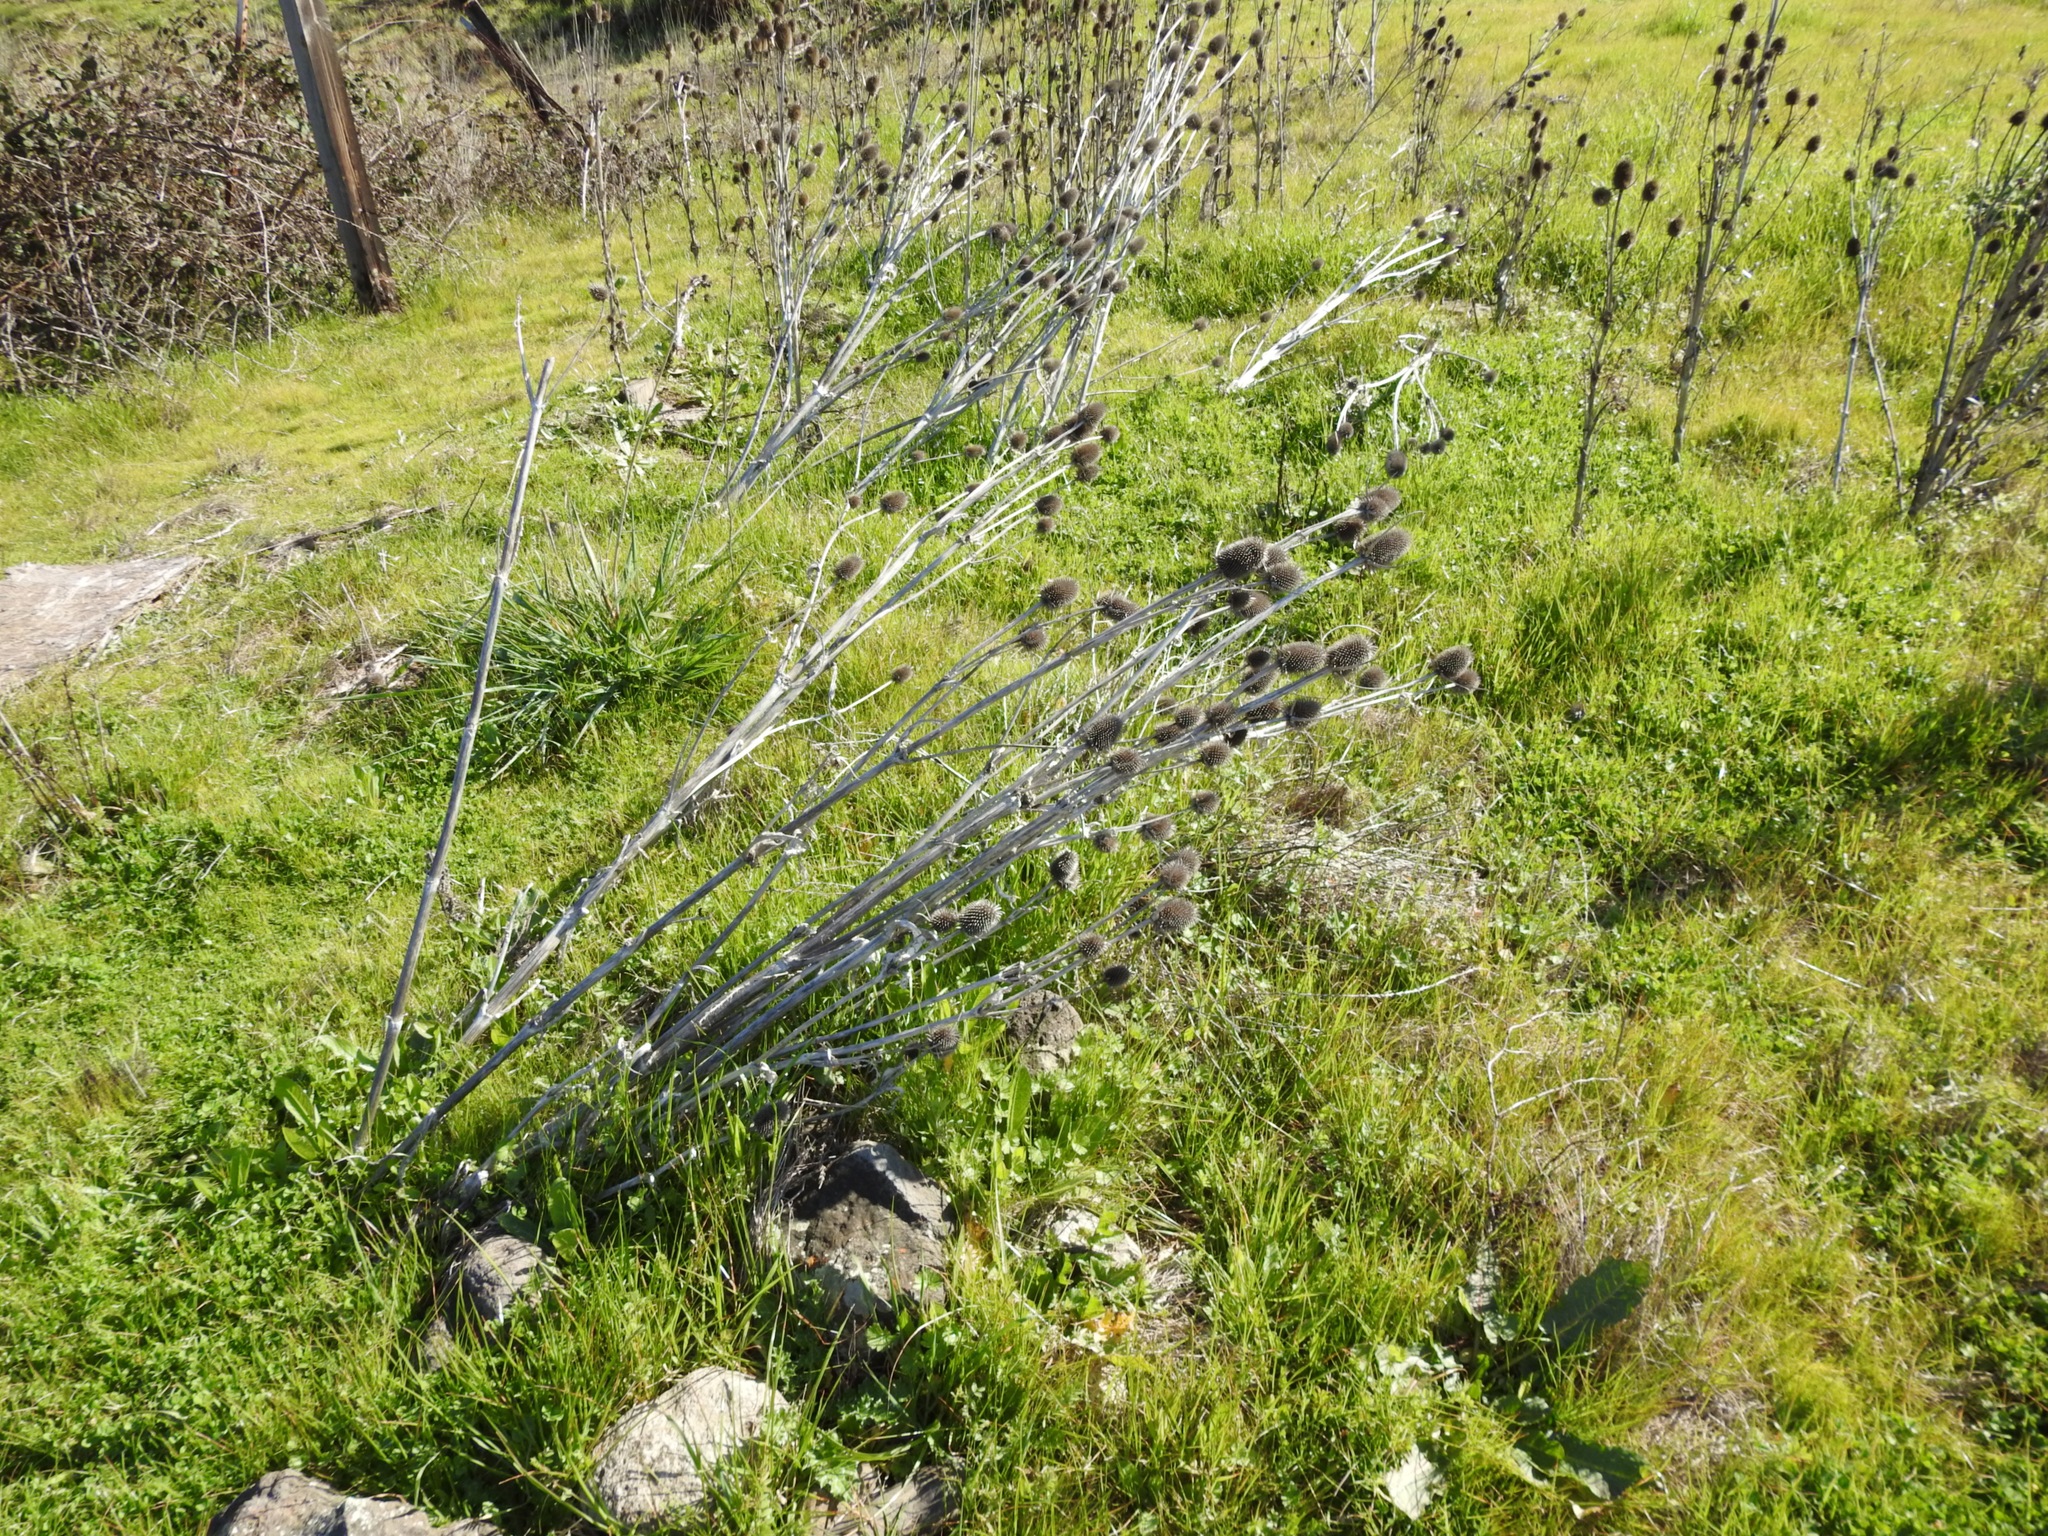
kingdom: Plantae
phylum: Tracheophyta
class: Magnoliopsida
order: Dipsacales
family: Caprifoliaceae
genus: Dipsacus
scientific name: Dipsacus sativus
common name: Fuller's teasel
